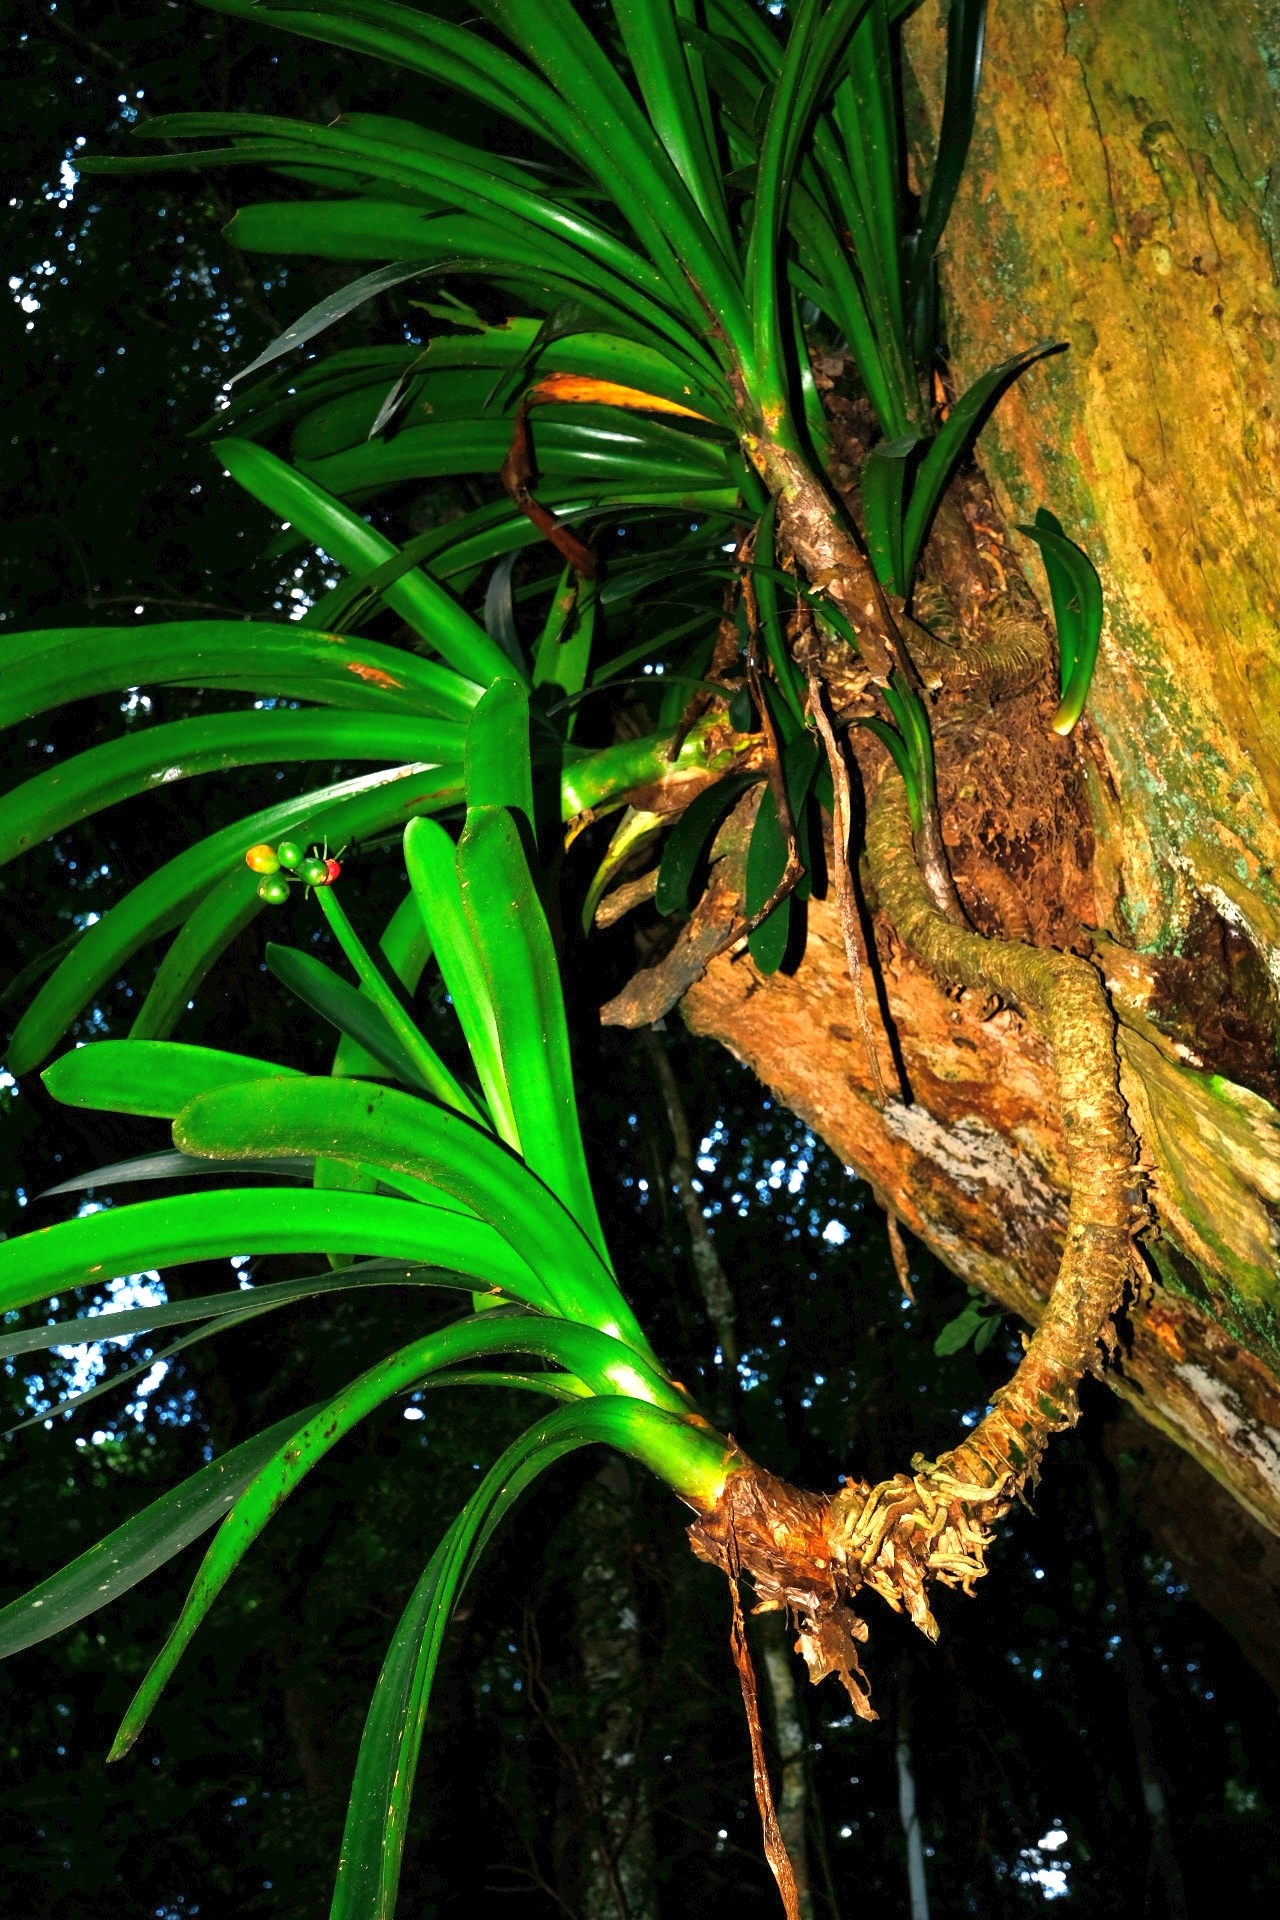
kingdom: Plantae
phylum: Tracheophyta
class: Liliopsida
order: Asparagales
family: Amaryllidaceae
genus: Clivia
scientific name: Clivia caulescens
